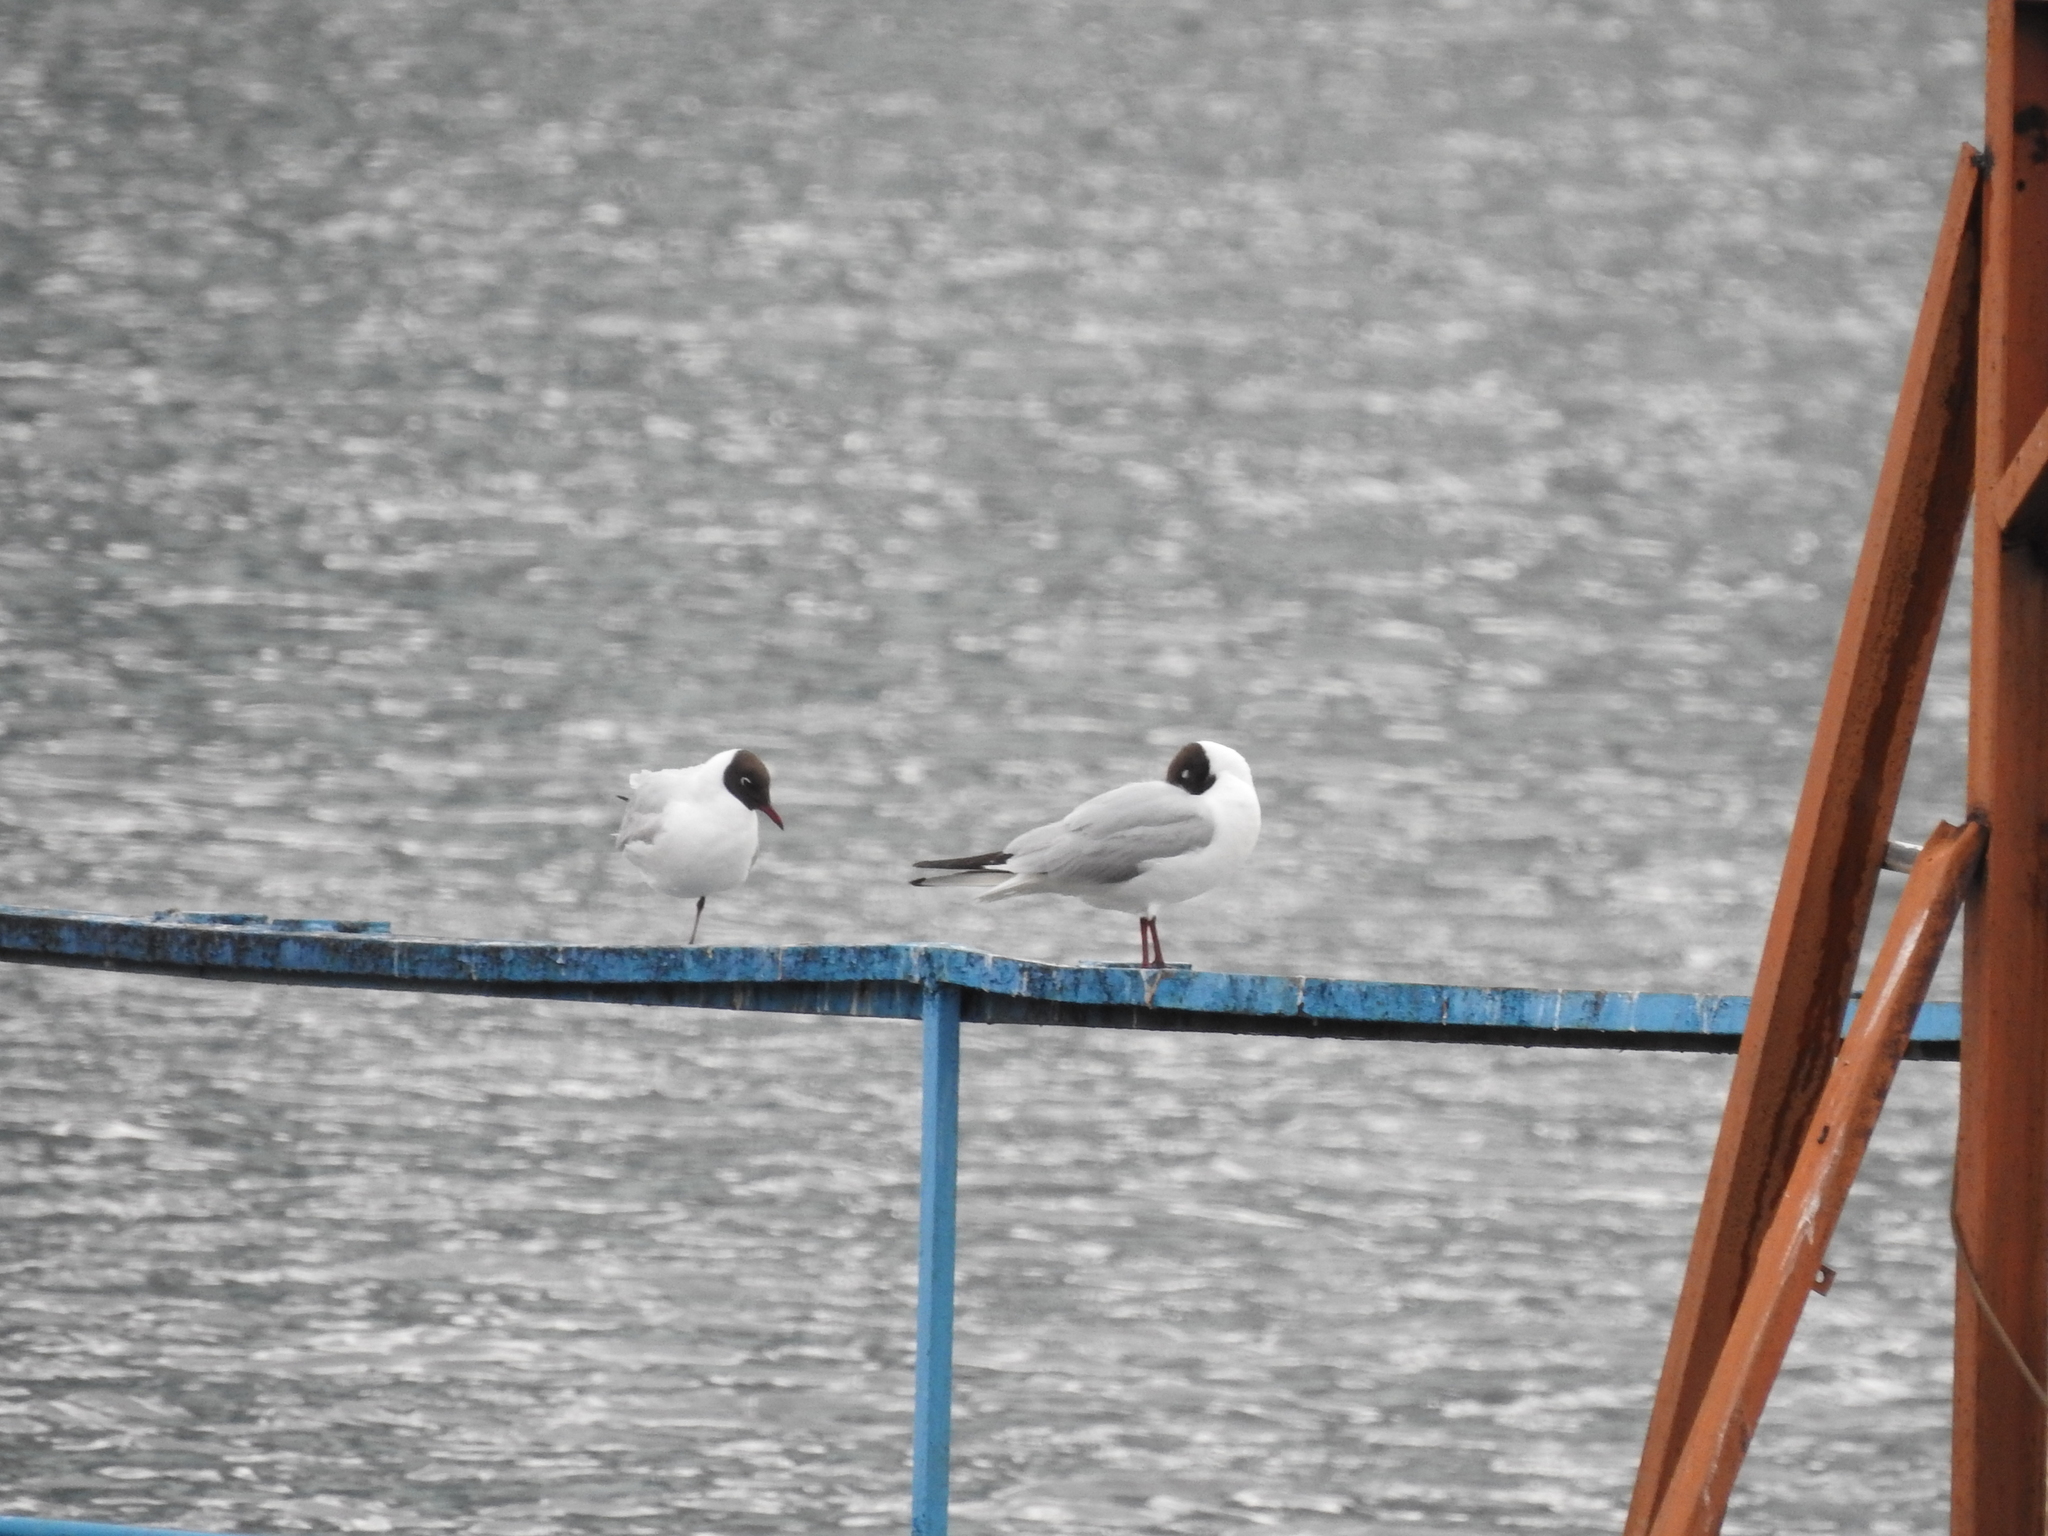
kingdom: Animalia
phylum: Chordata
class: Aves
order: Charadriiformes
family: Laridae
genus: Chroicocephalus
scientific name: Chroicocephalus ridibundus
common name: Black-headed gull
